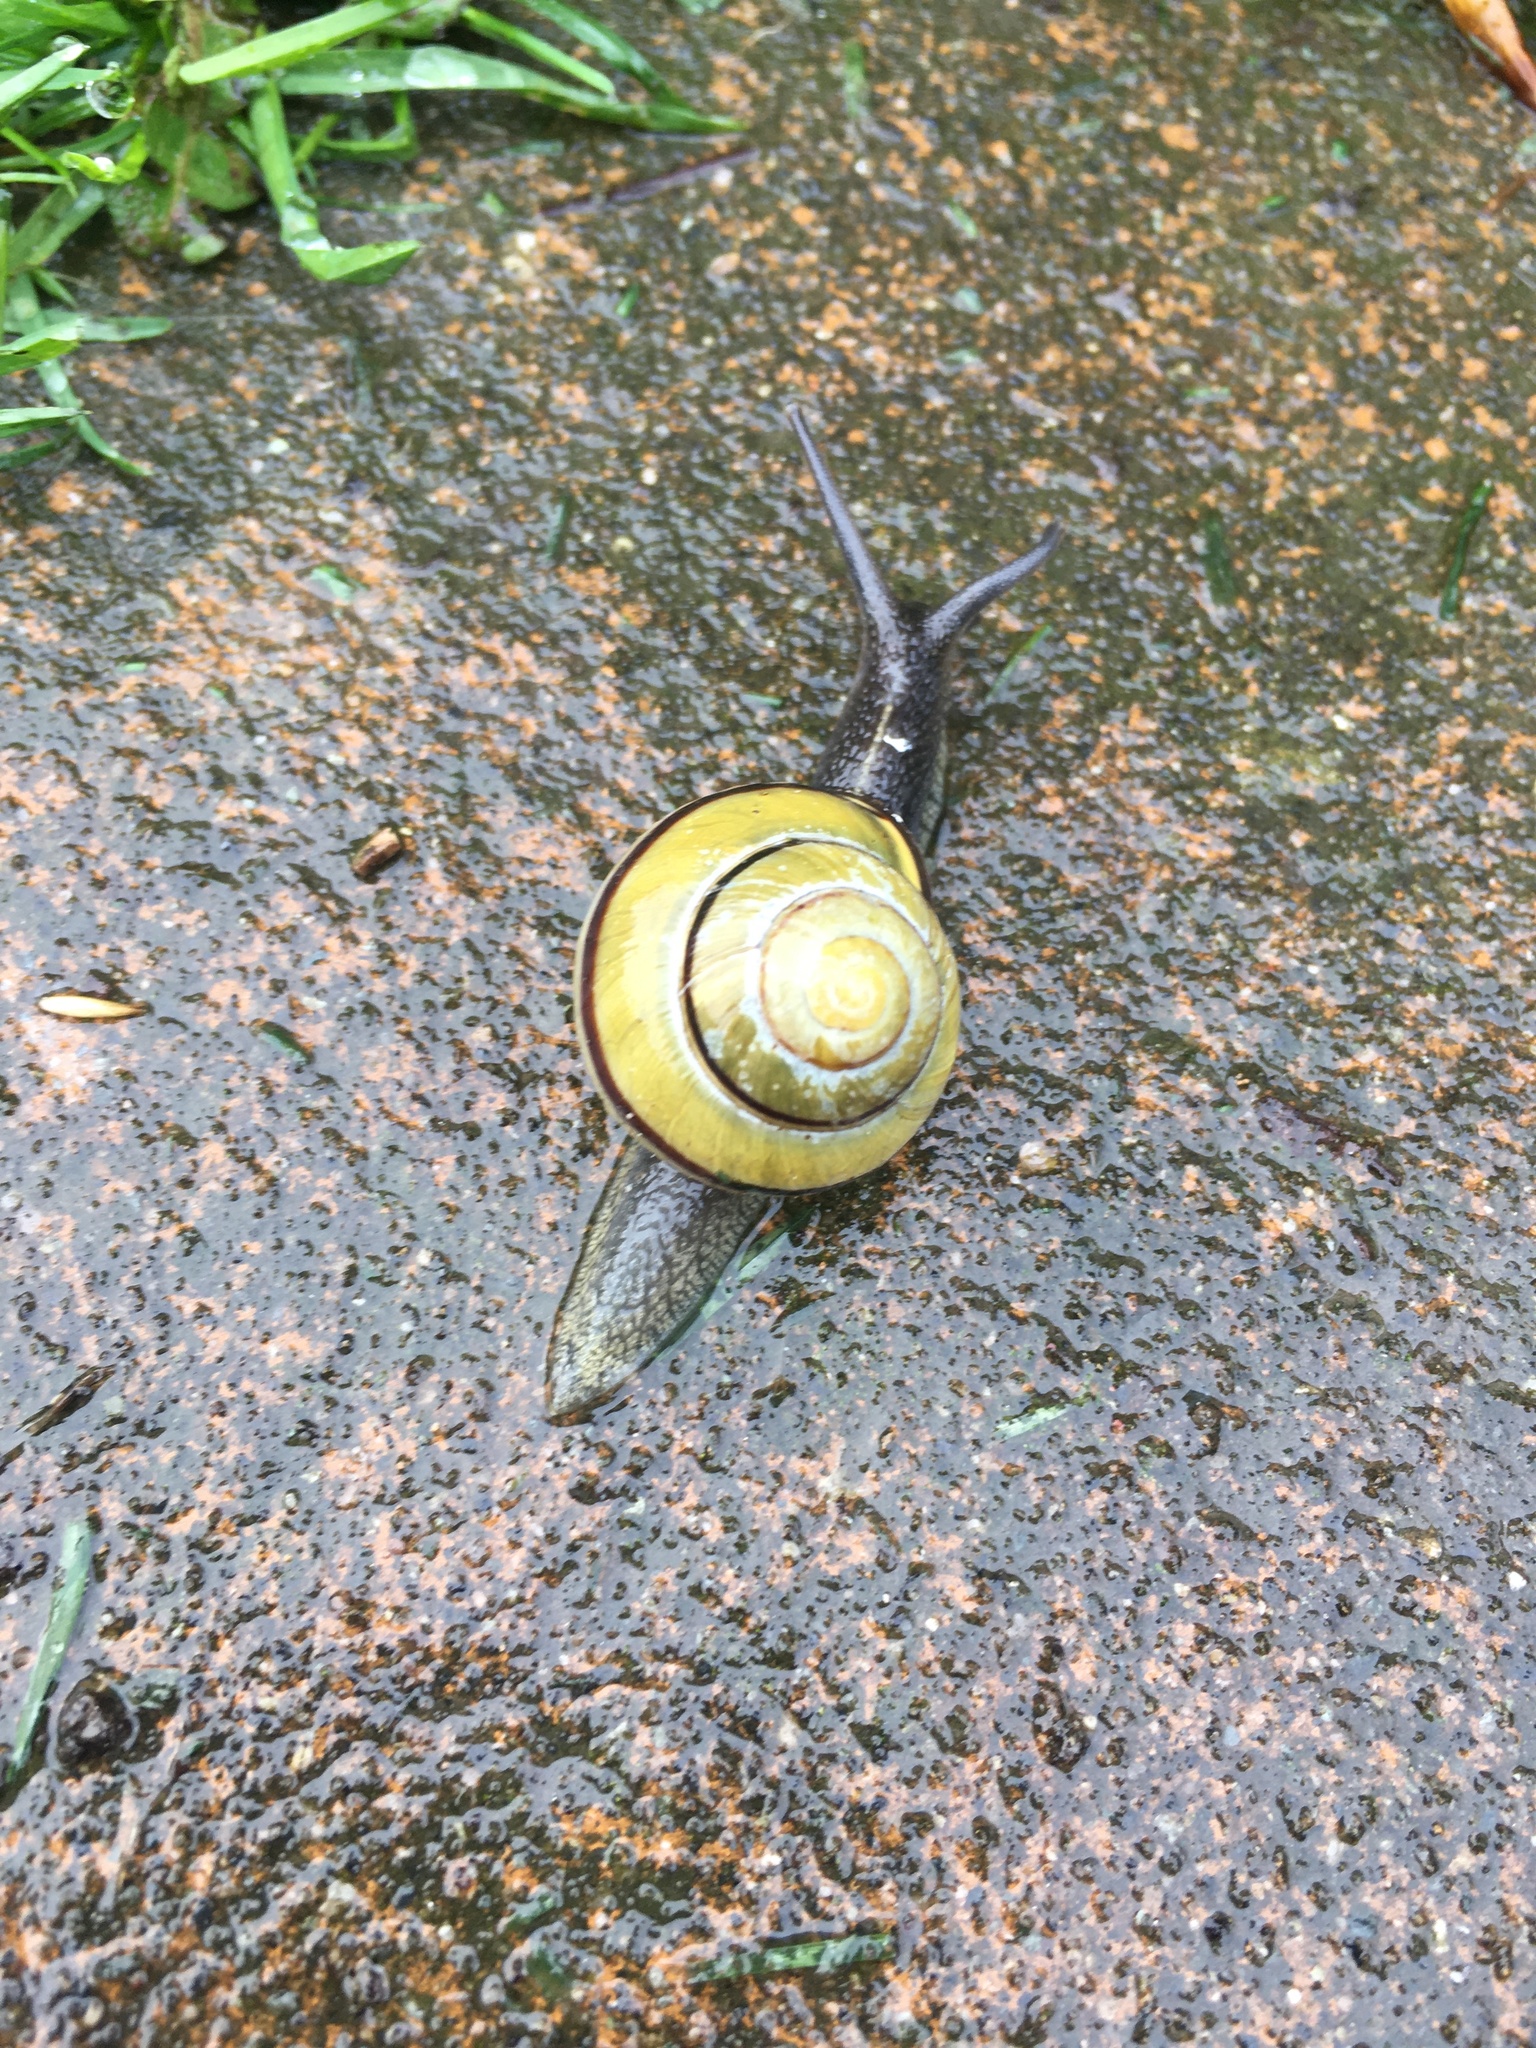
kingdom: Animalia
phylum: Mollusca
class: Gastropoda
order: Stylommatophora
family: Helicidae
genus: Cepaea
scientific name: Cepaea nemoralis
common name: Grovesnail
